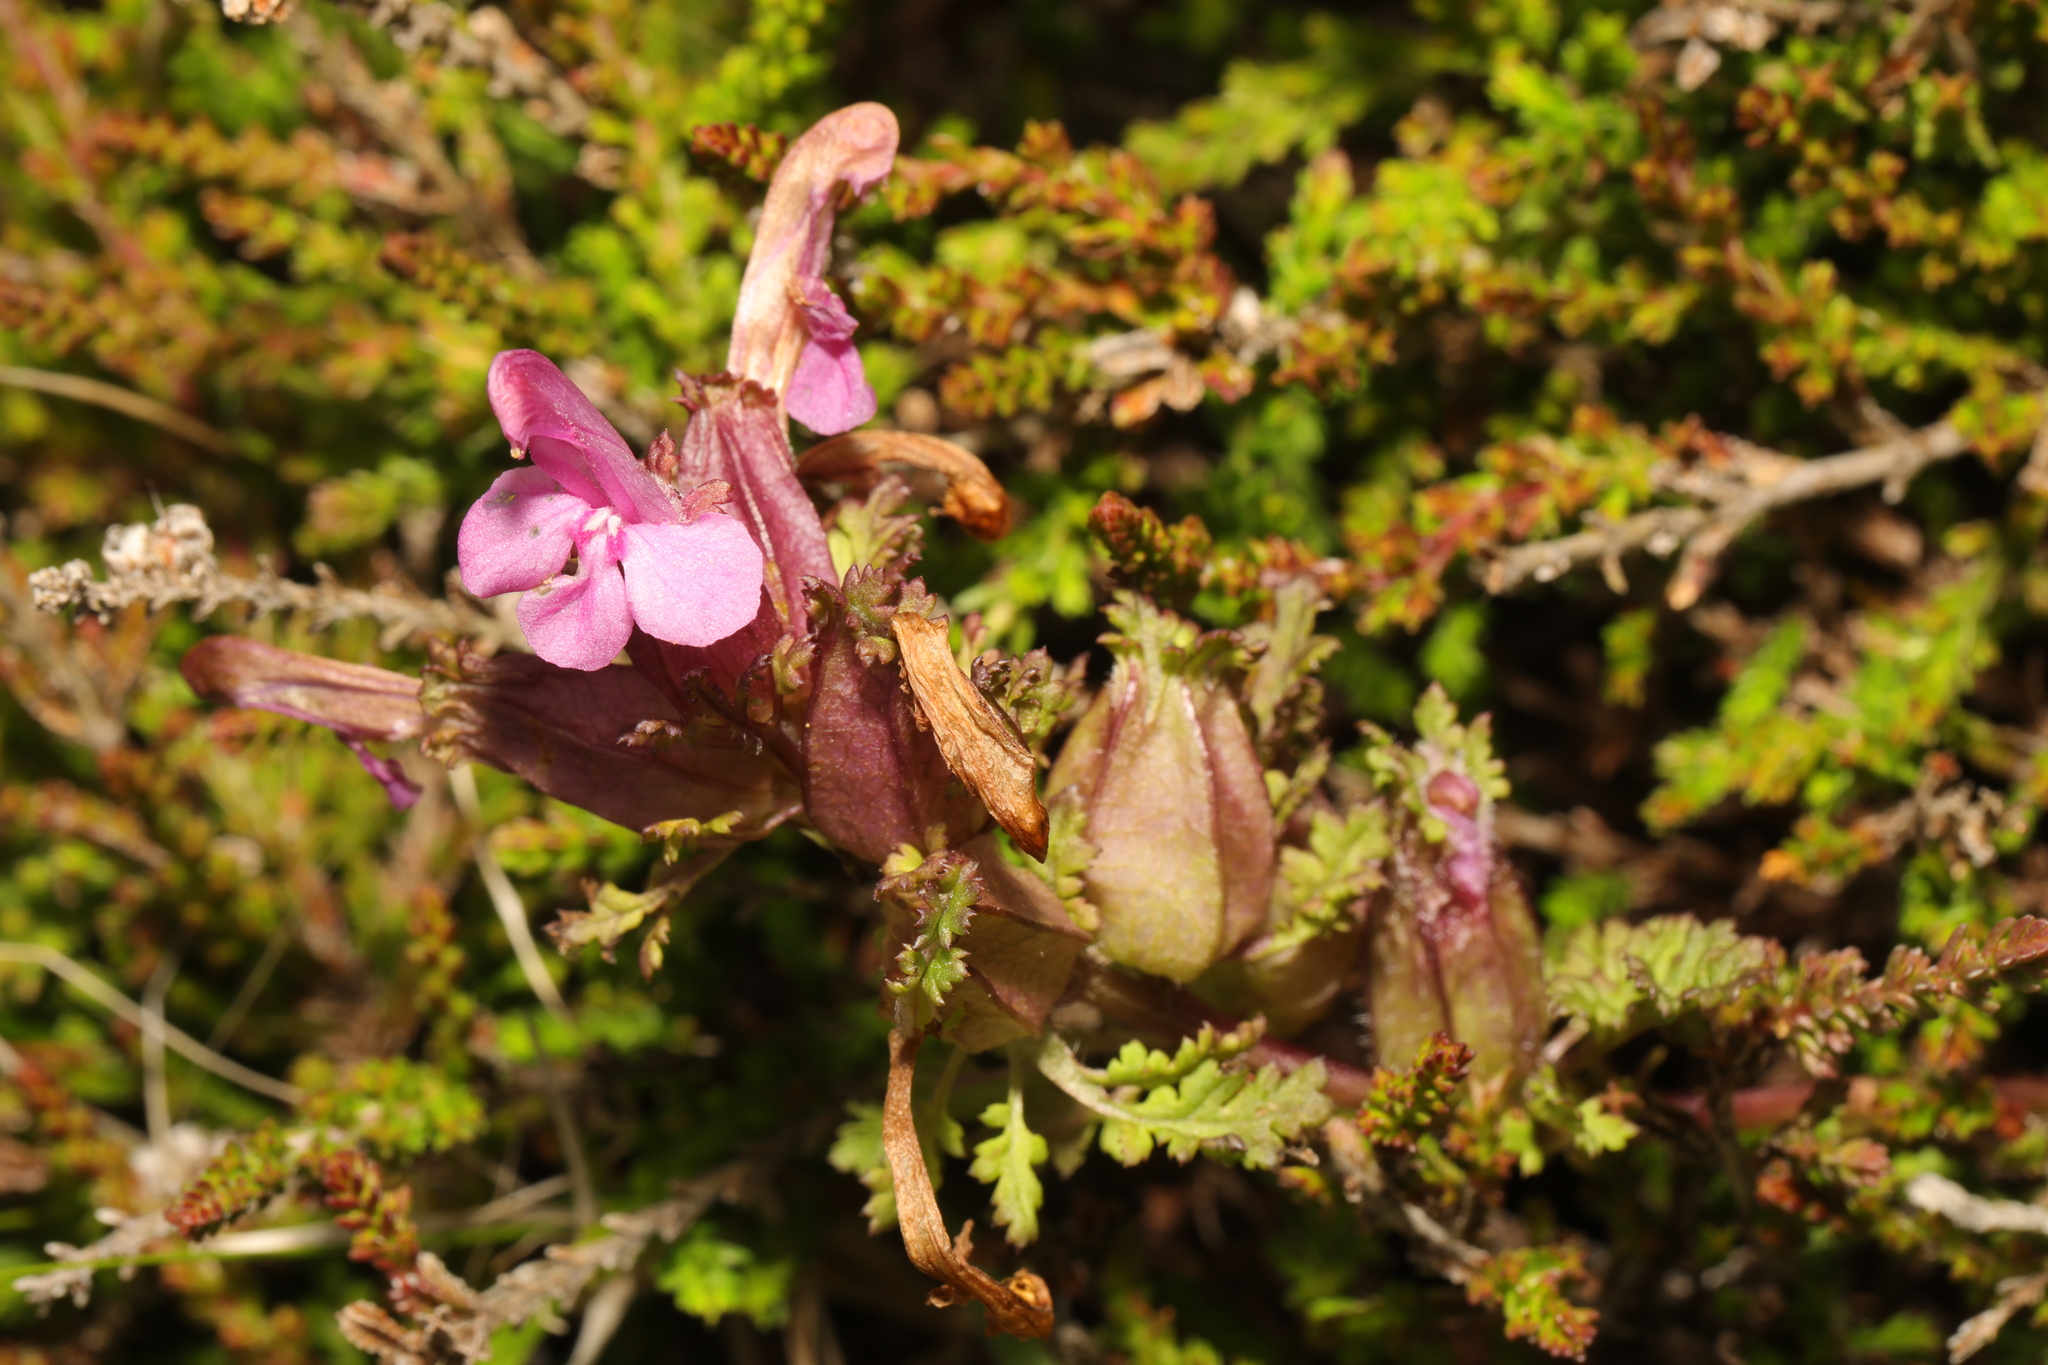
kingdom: Plantae
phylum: Tracheophyta
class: Magnoliopsida
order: Lamiales
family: Orobanchaceae
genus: Pedicularis
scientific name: Pedicularis sylvatica
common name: Lousewort
